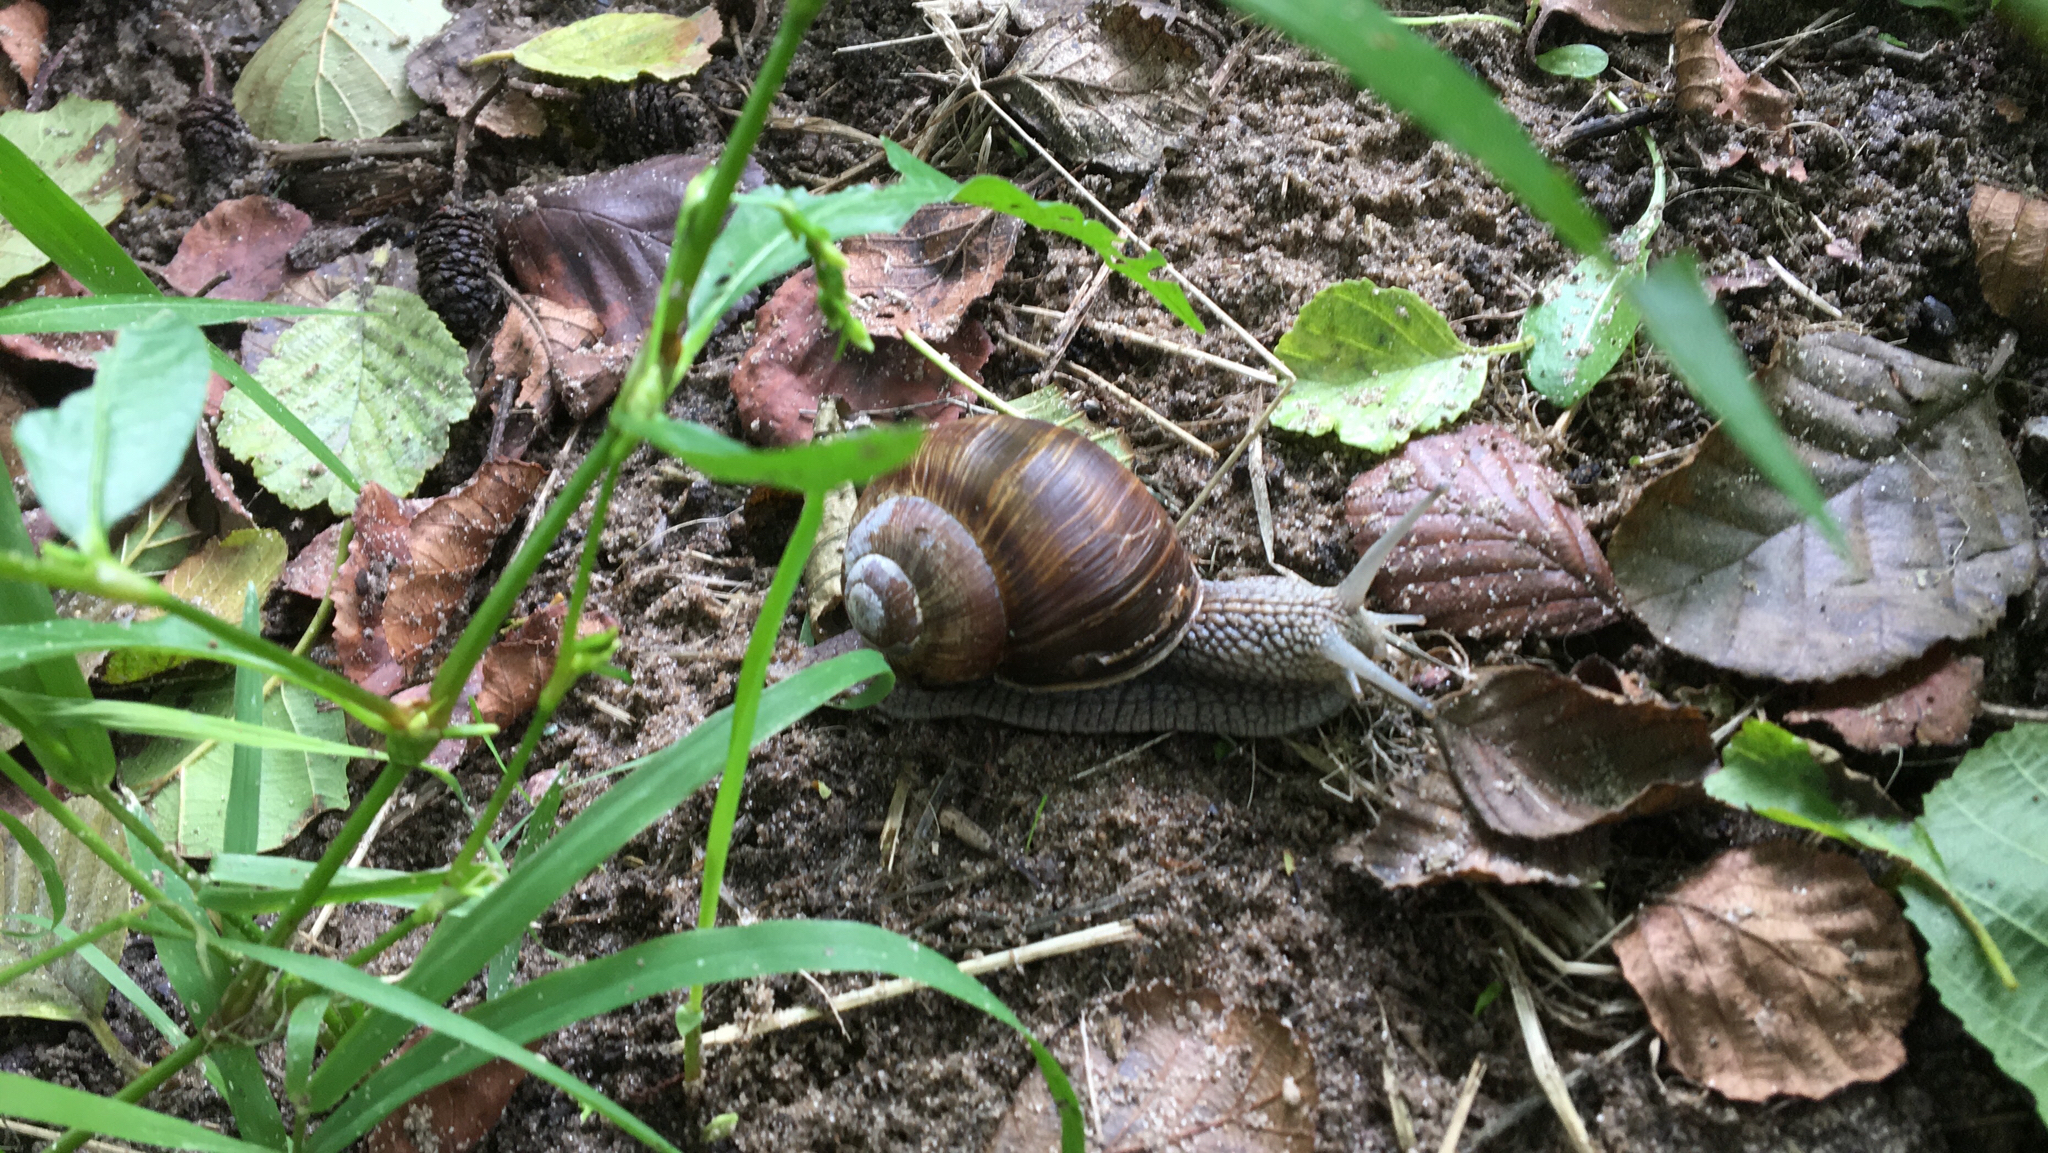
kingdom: Animalia
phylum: Mollusca
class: Gastropoda
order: Stylommatophora
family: Helicidae
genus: Helix
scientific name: Helix pomatia
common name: Roman snail
